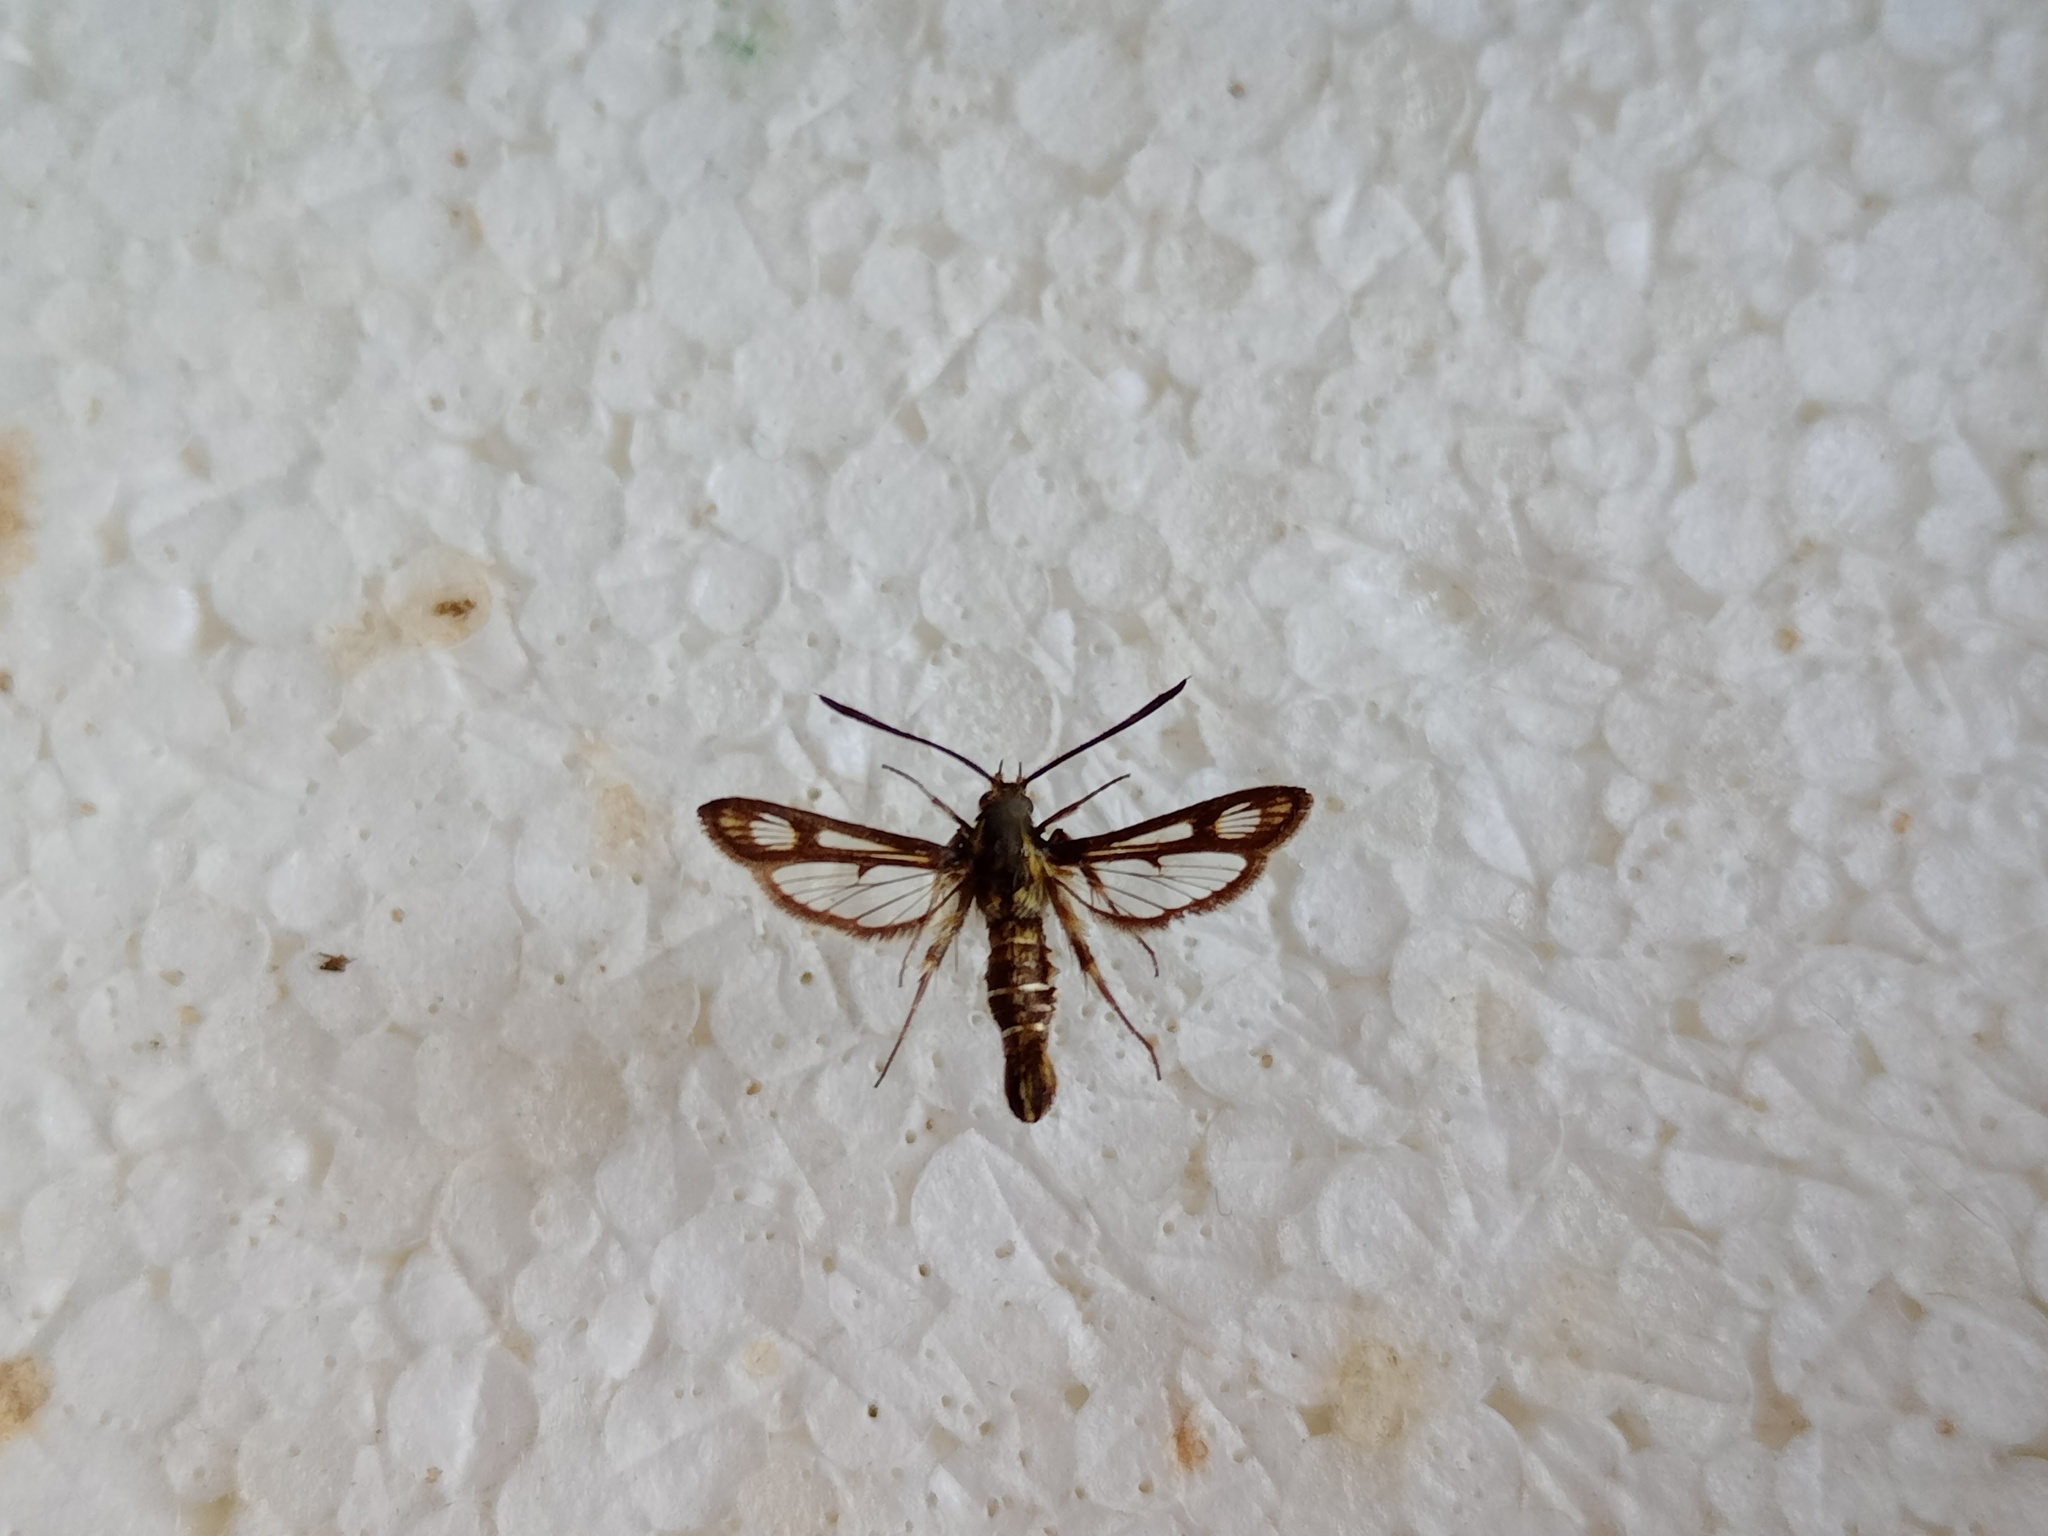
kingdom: Animalia
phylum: Arthropoda
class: Insecta
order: Lepidoptera
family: Sesiidae
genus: Pyropteron
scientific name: Pyropteron muscaeformis
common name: Thrift clearwing
